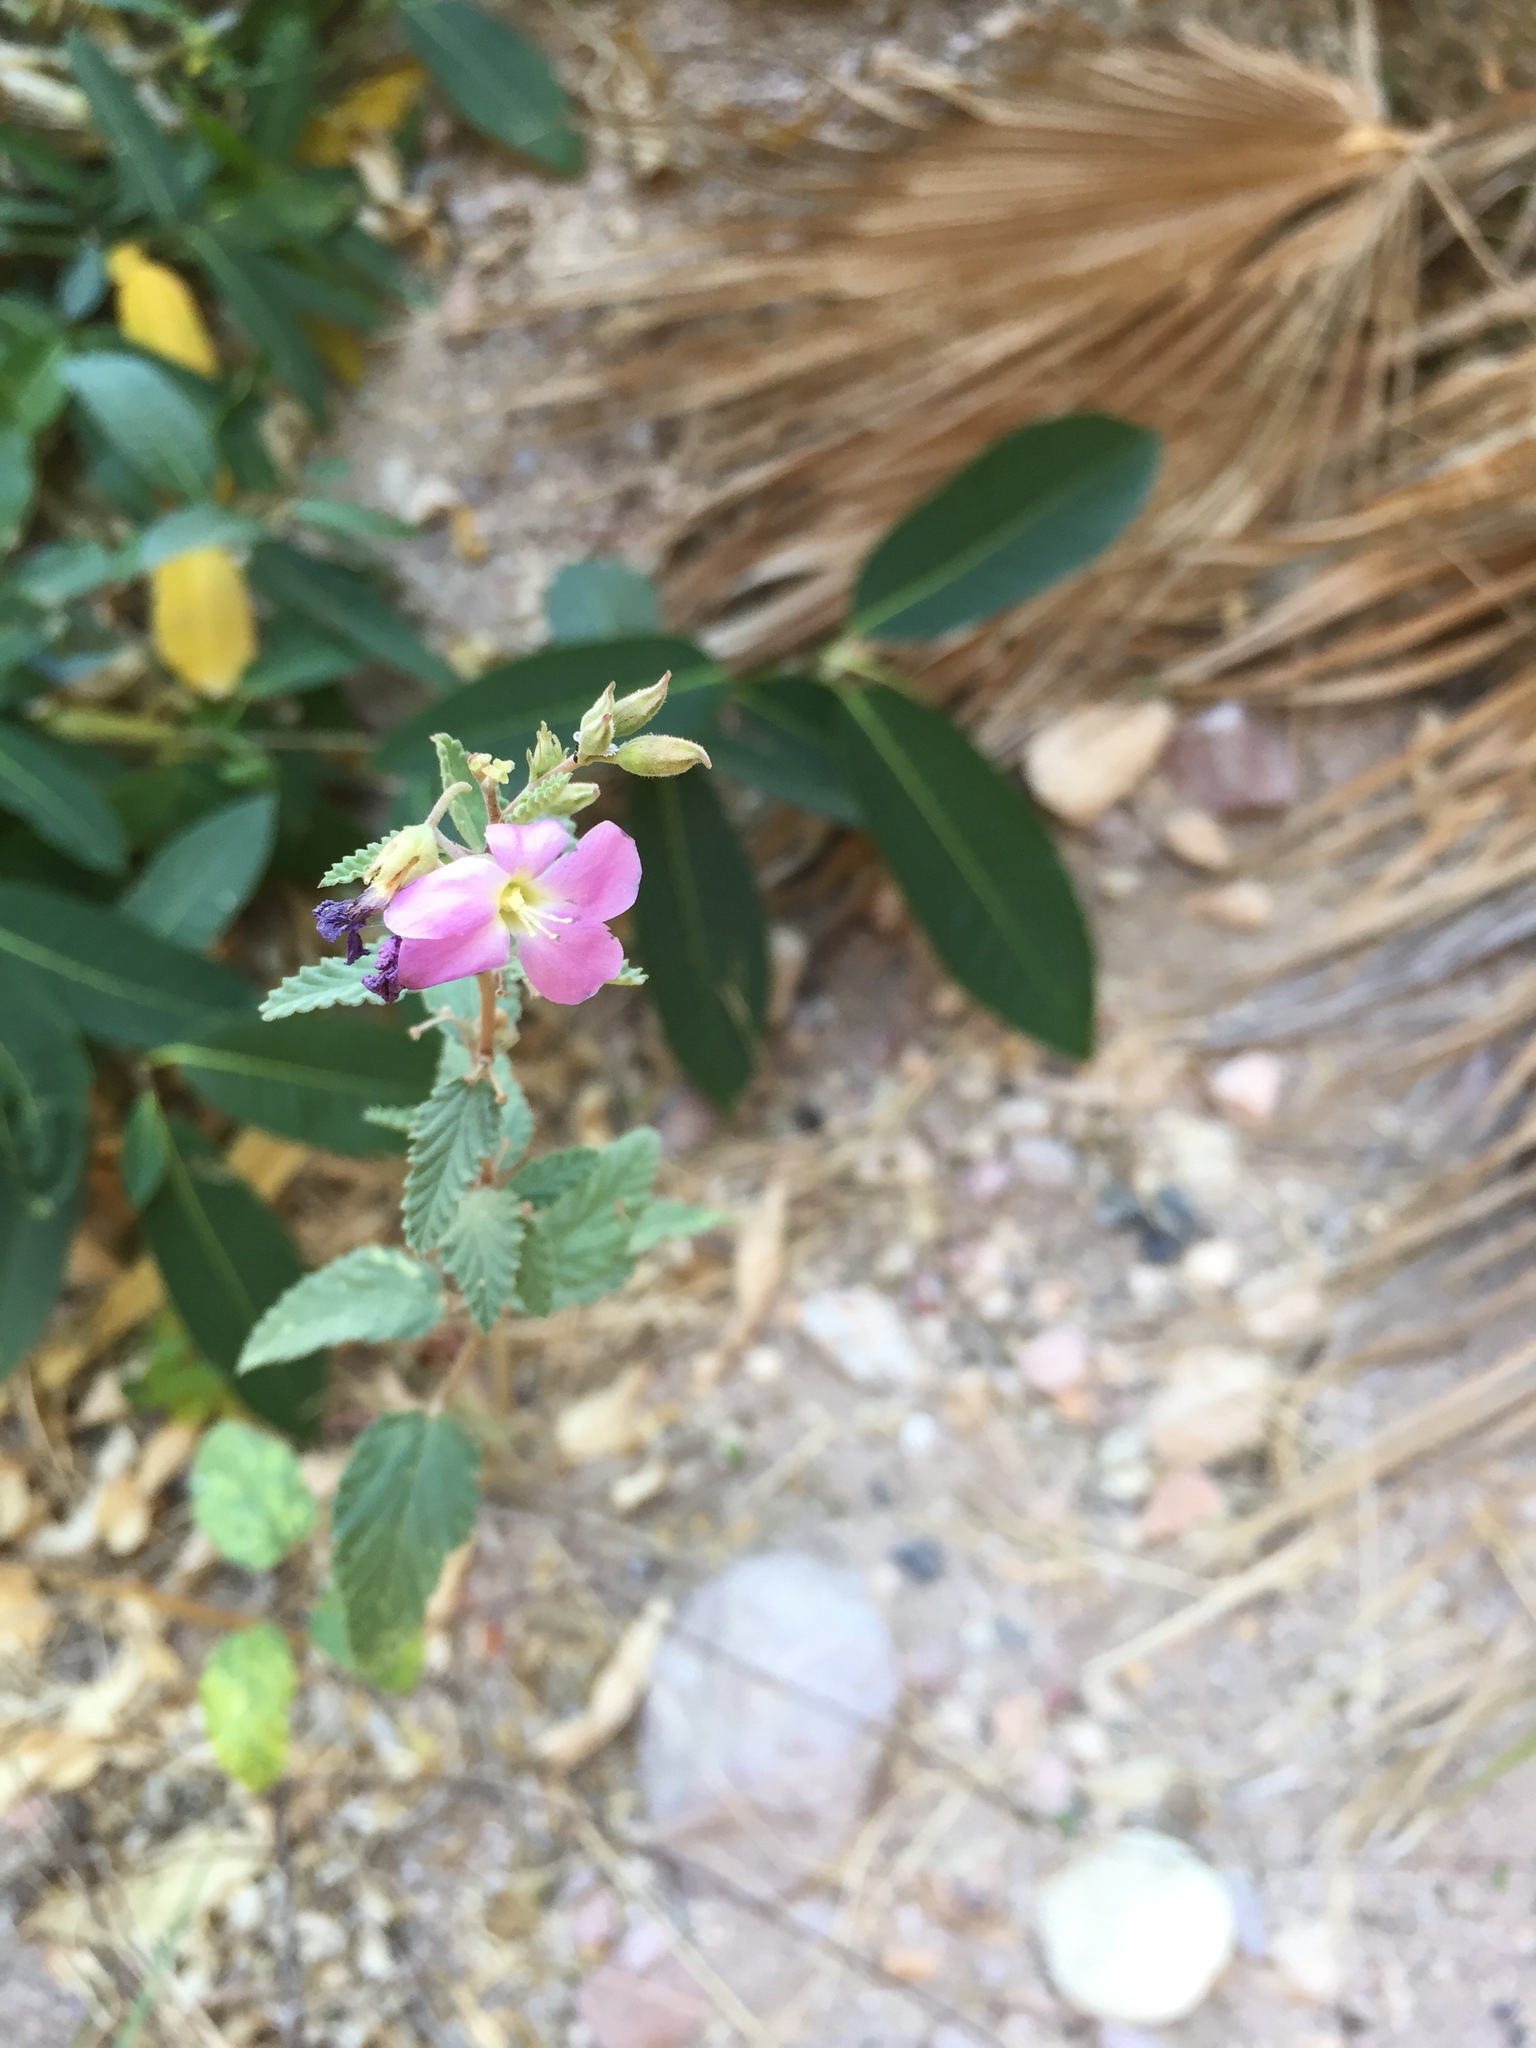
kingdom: Plantae
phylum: Tracheophyta
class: Magnoliopsida
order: Malvales
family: Malvaceae
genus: Melochia
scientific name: Melochia tomentosa
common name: Black torch
